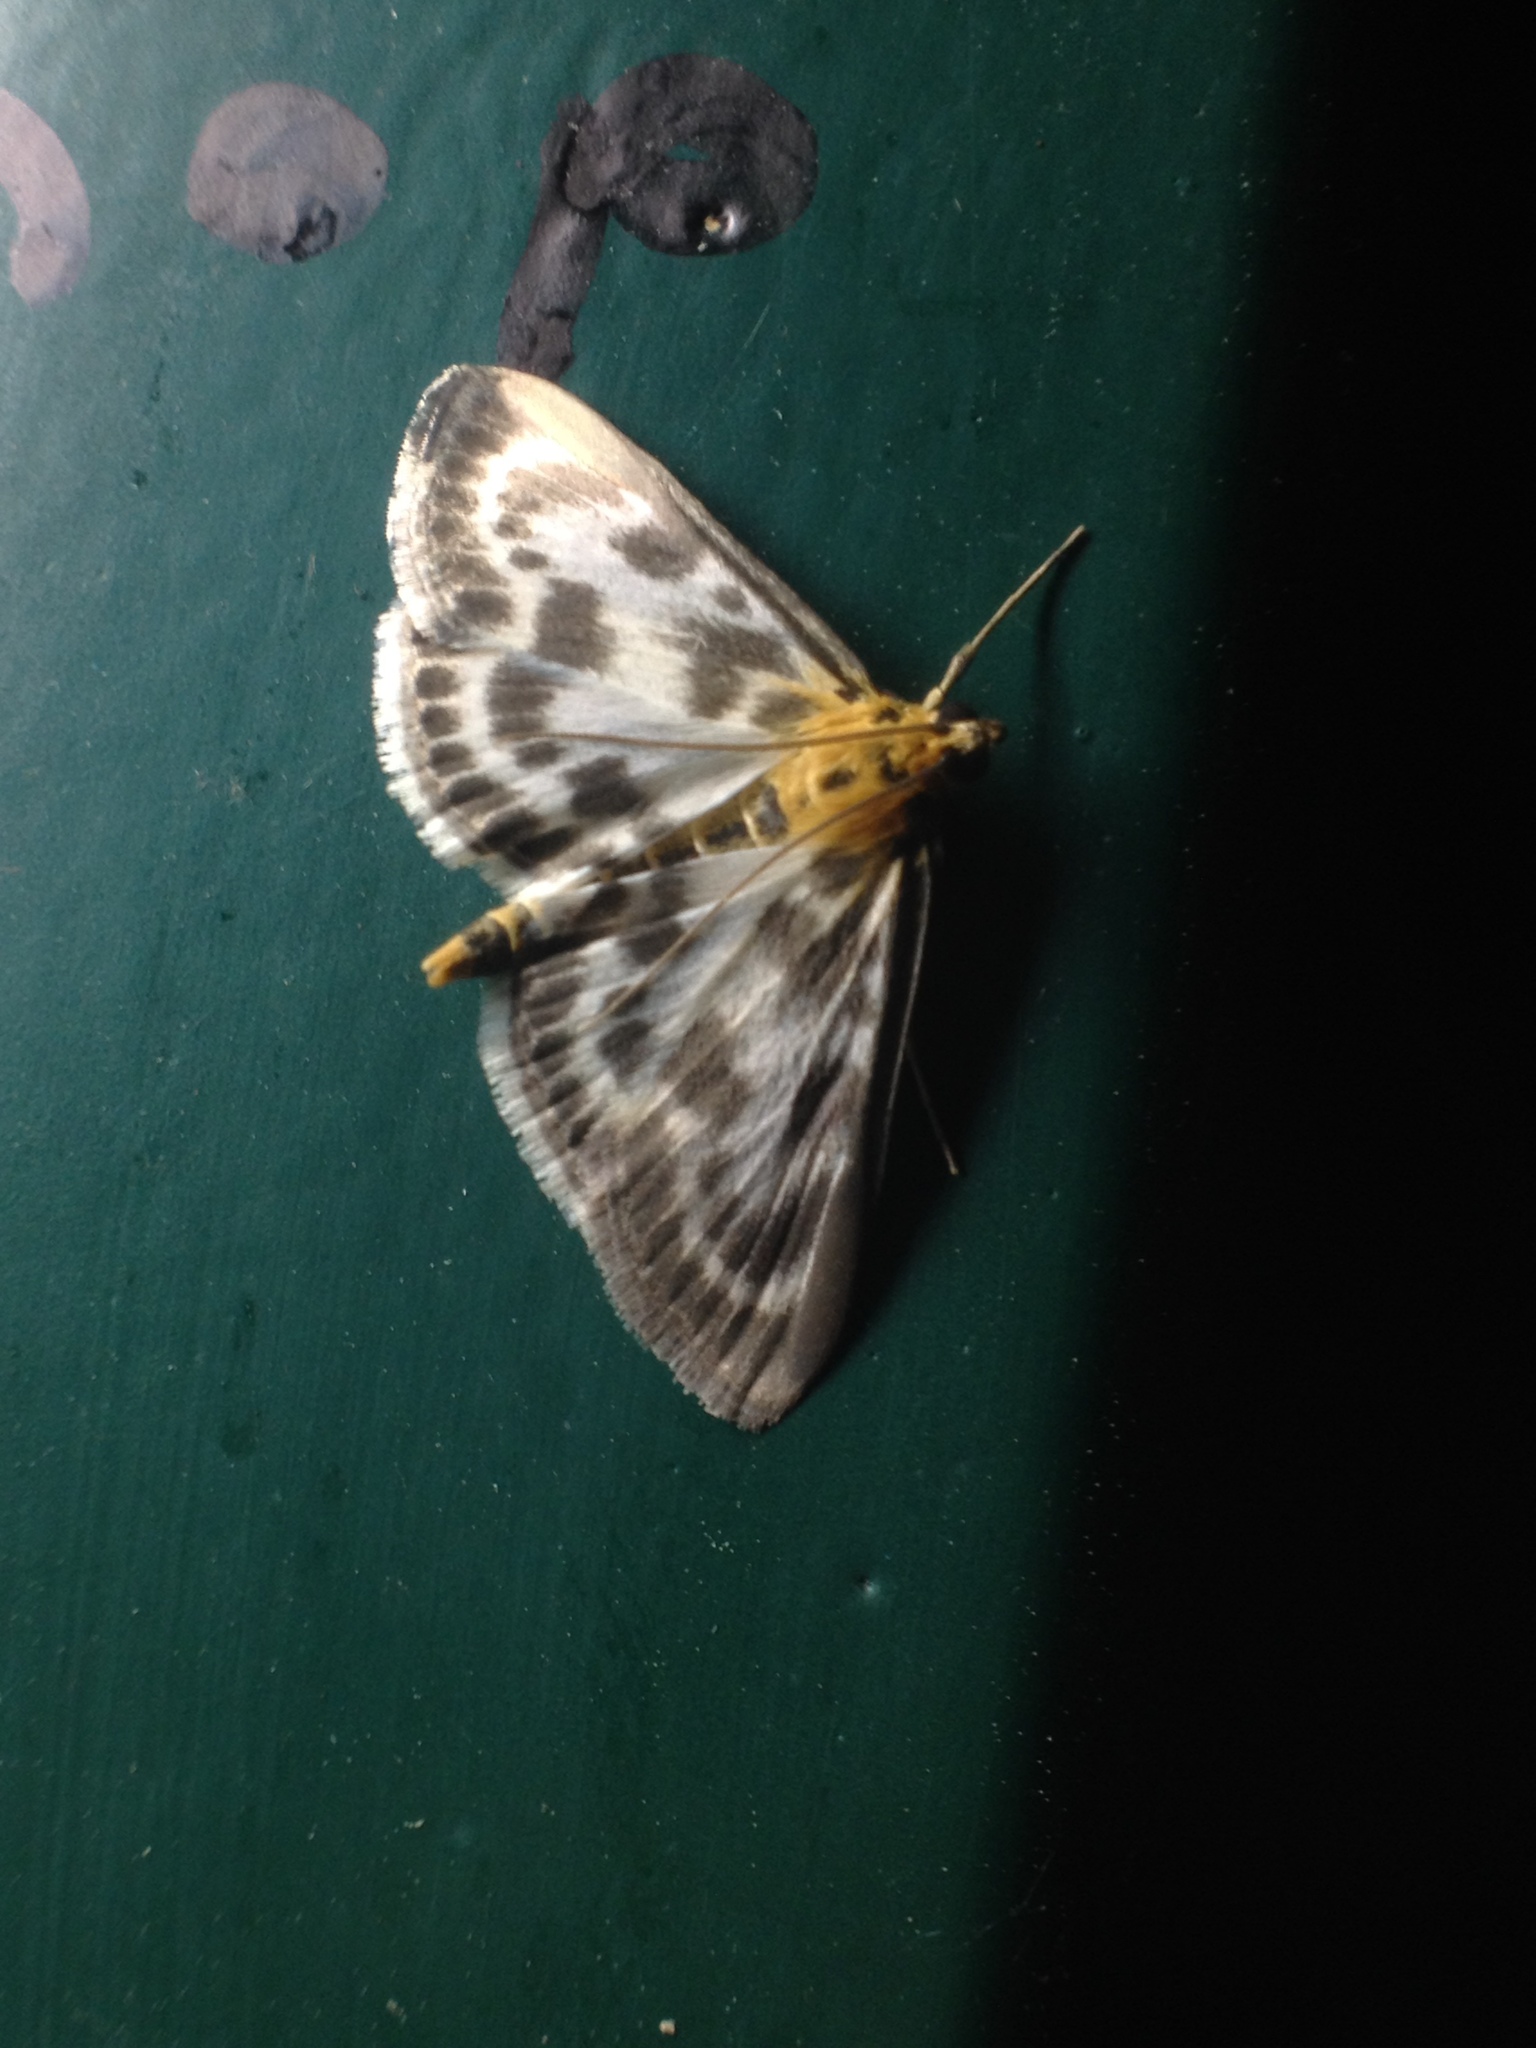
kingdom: Animalia
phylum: Arthropoda
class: Insecta
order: Lepidoptera
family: Crambidae
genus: Anania
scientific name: Anania hortulata
